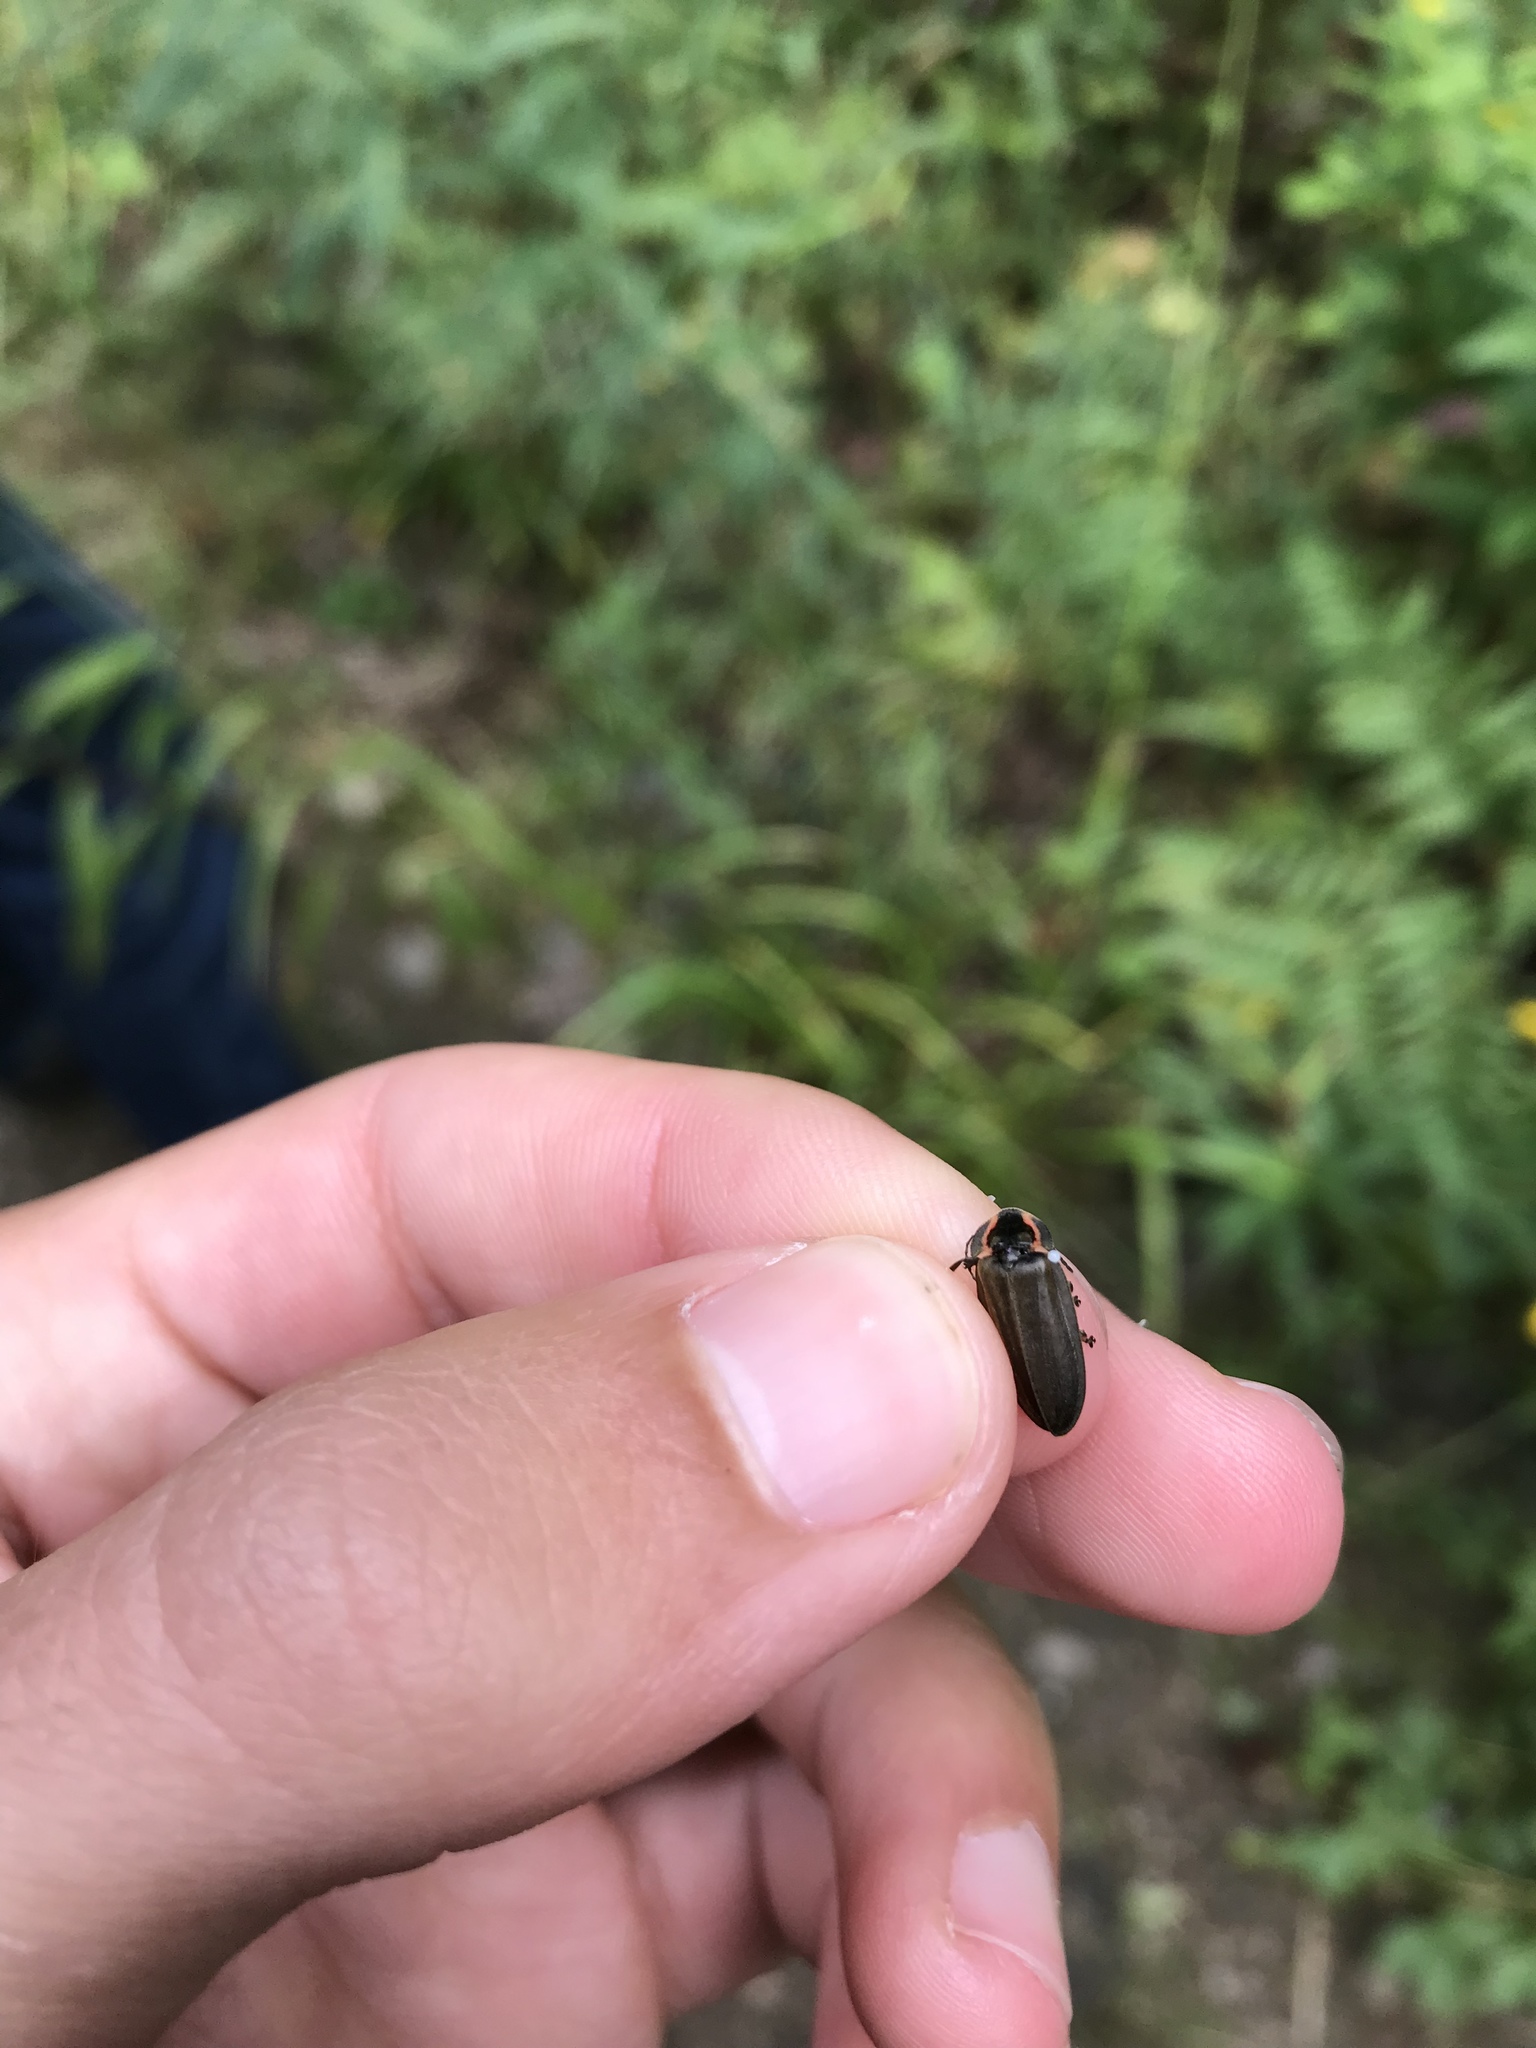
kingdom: Animalia
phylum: Arthropoda
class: Insecta
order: Coleoptera
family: Lampyridae
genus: Photinus
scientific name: Photinus corrusca
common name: Winter firefly
